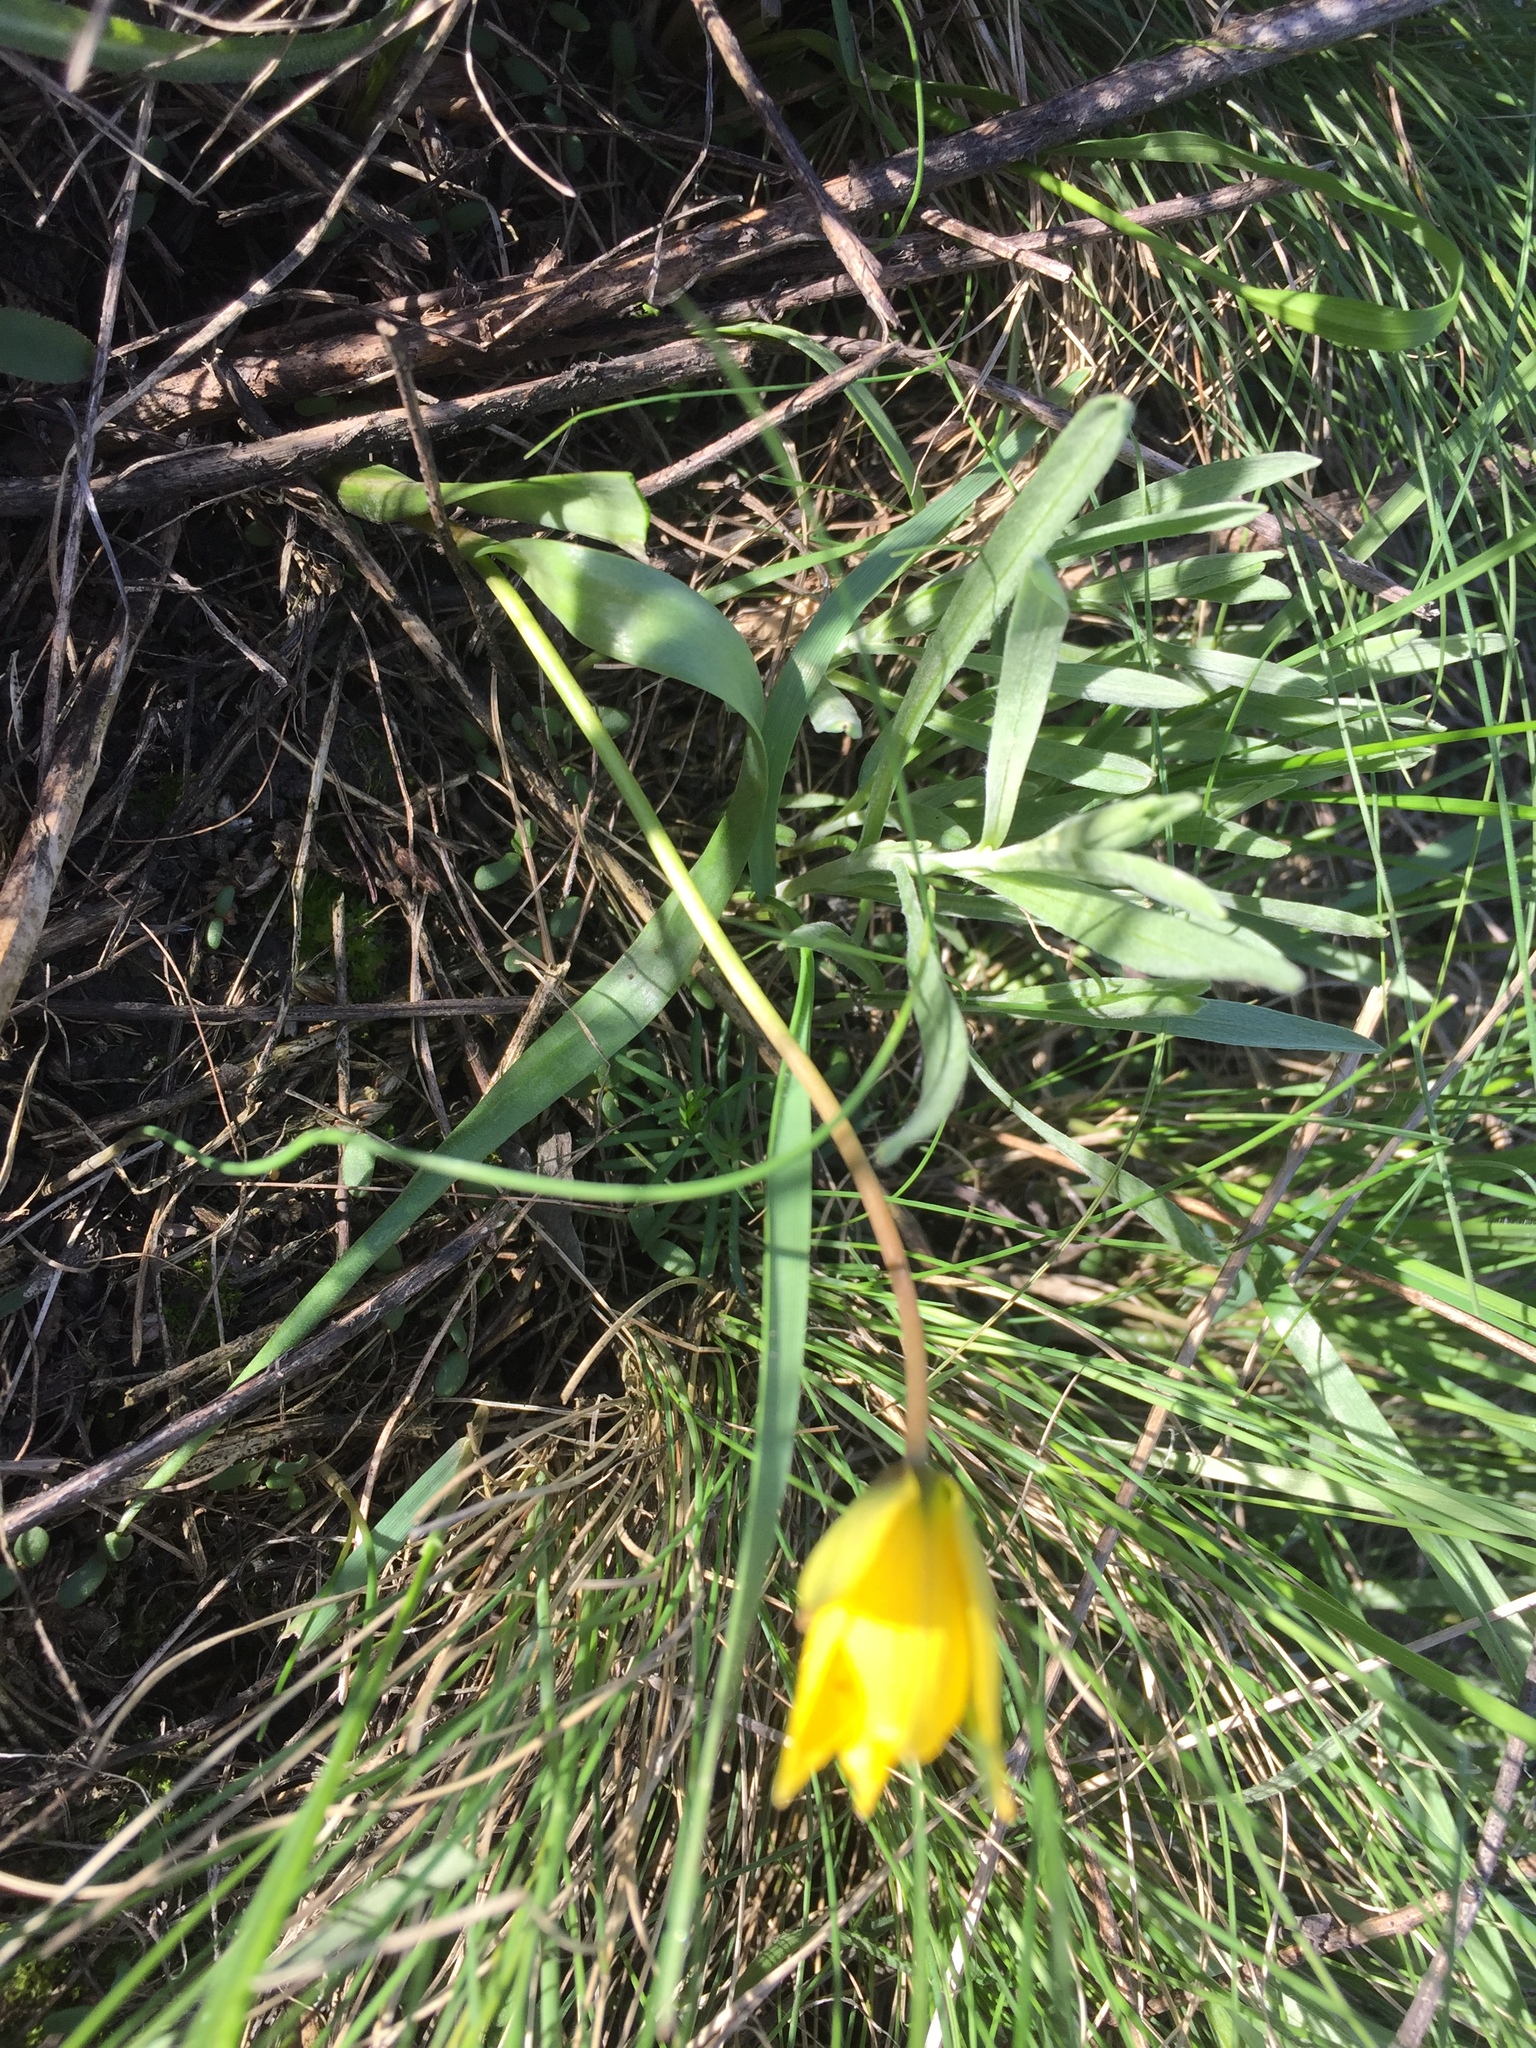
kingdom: Plantae
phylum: Tracheophyta
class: Liliopsida
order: Liliales
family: Liliaceae
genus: Tulipa
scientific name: Tulipa sylvestris
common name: Wild tulip
